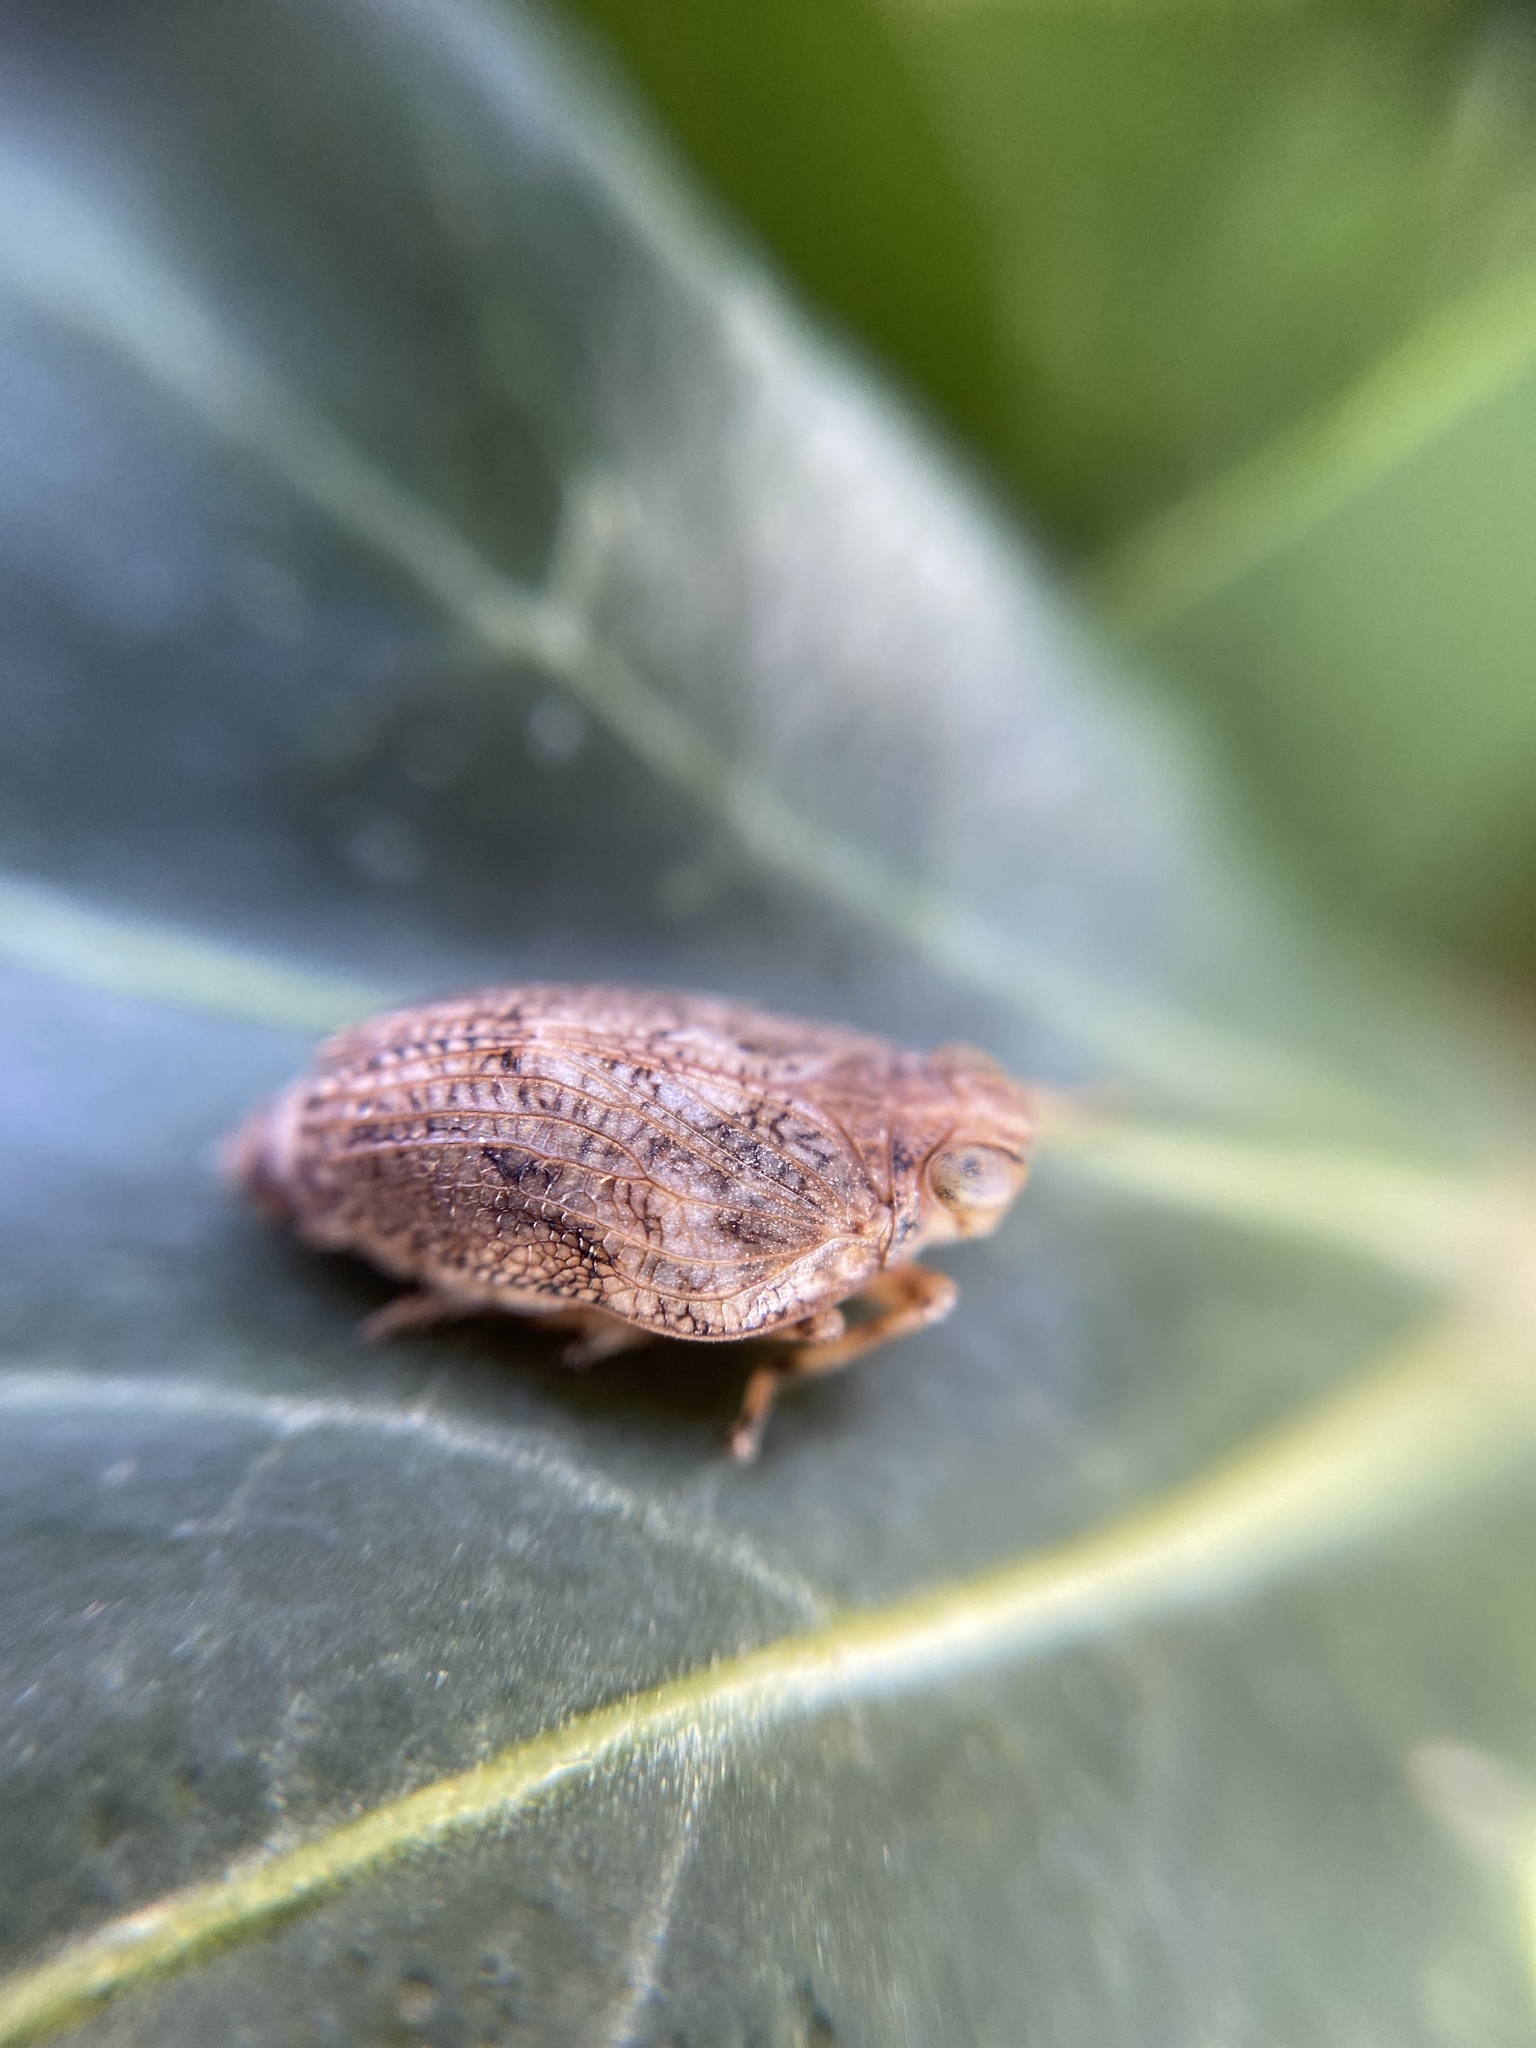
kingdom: Animalia
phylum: Arthropoda
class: Insecta
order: Hemiptera
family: Issidae
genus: Issus
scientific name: Issus coleoptratus
